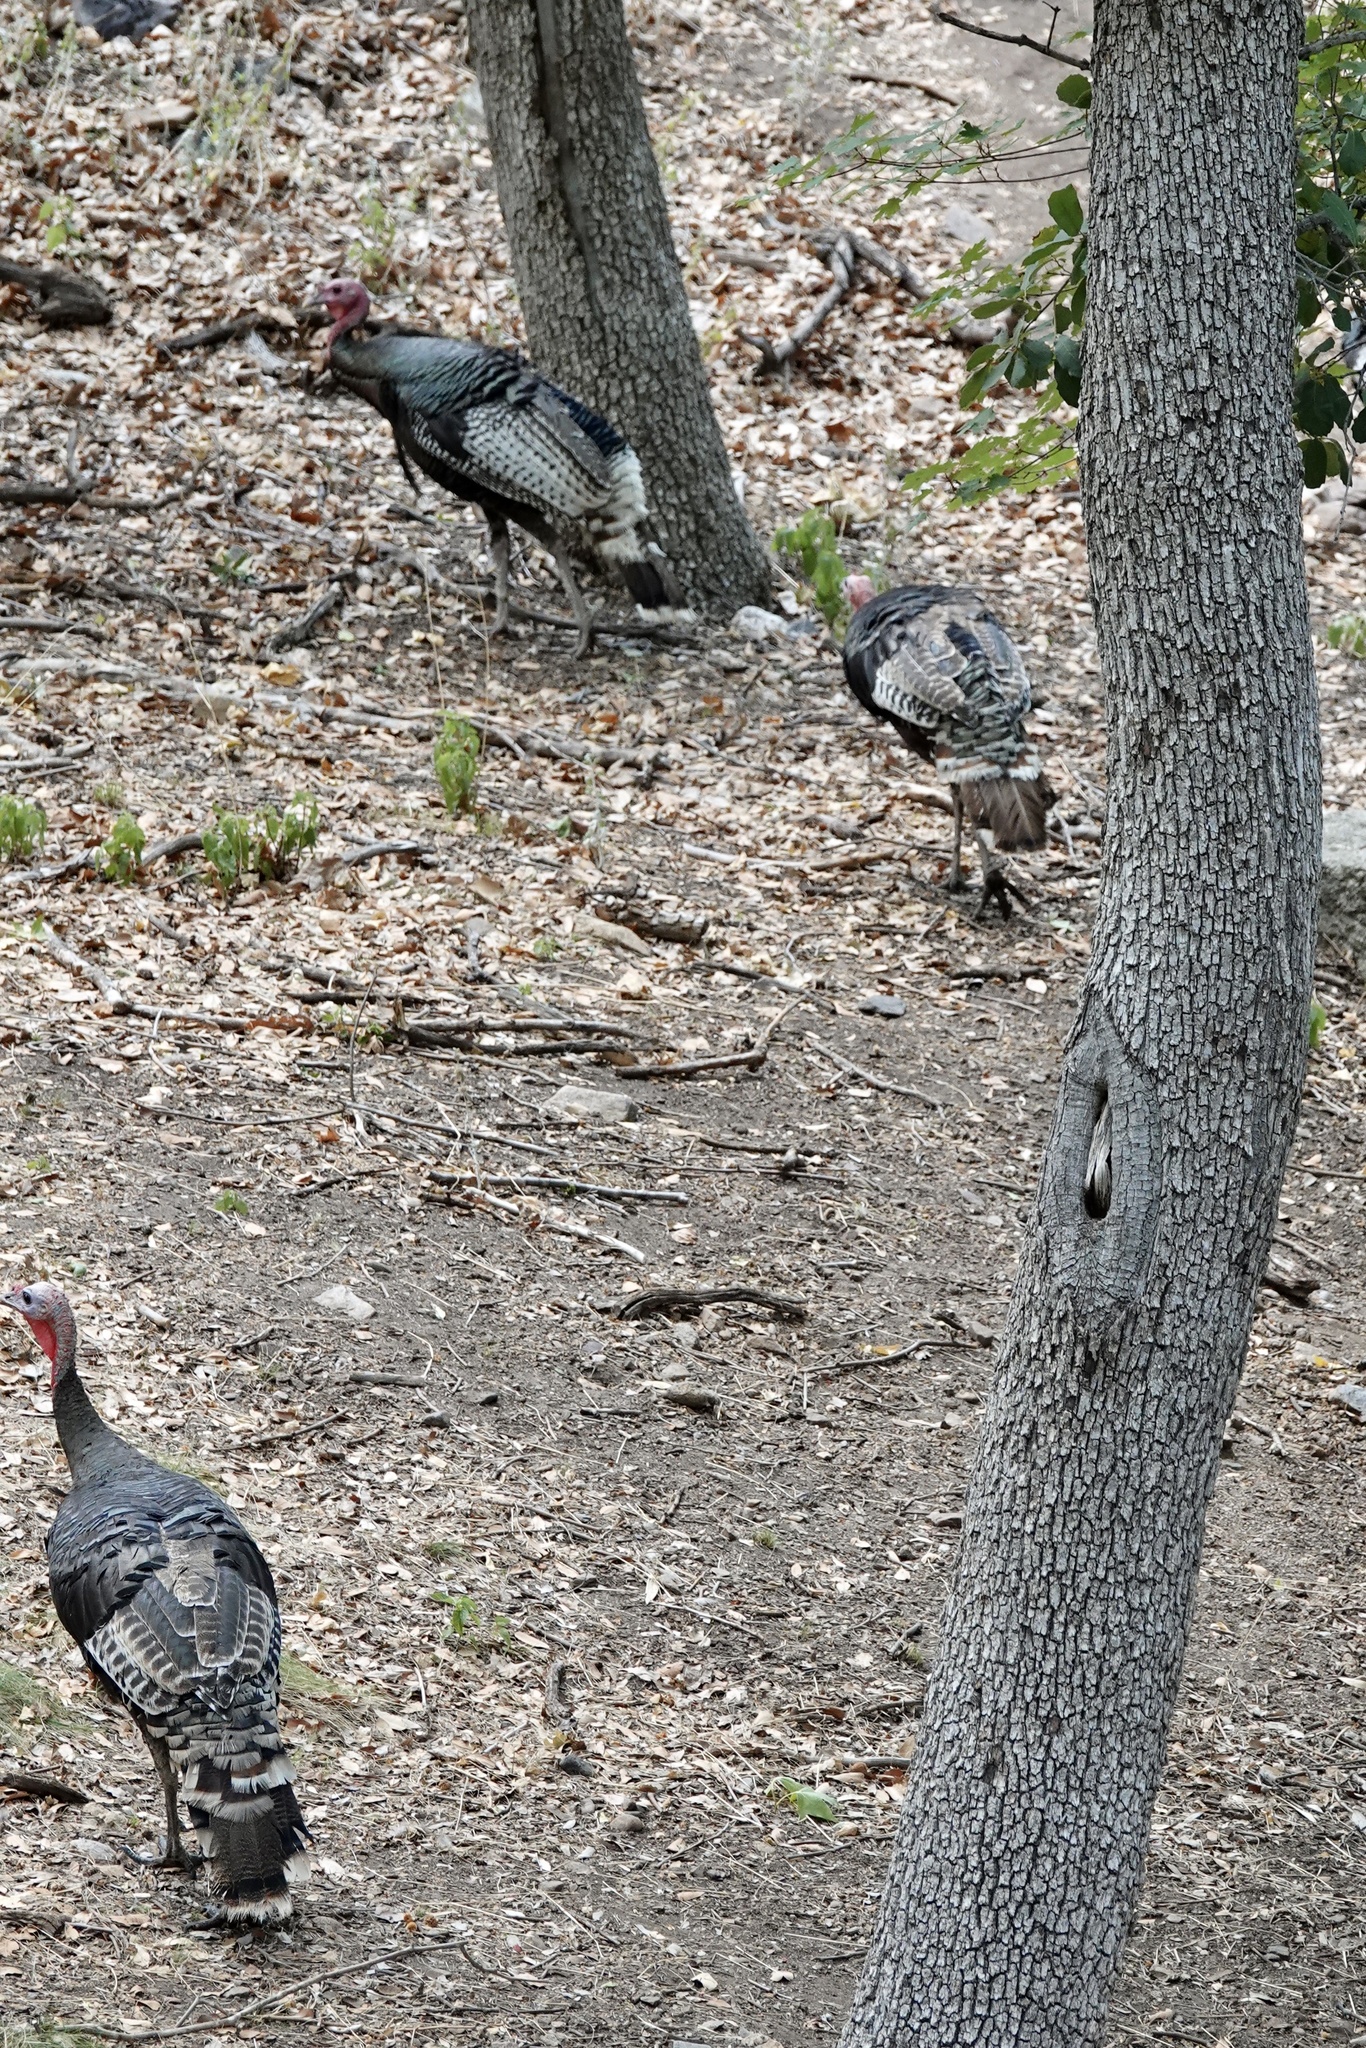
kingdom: Animalia
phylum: Chordata
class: Aves
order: Galliformes
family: Phasianidae
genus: Meleagris
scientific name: Meleagris gallopavo
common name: Wild turkey
